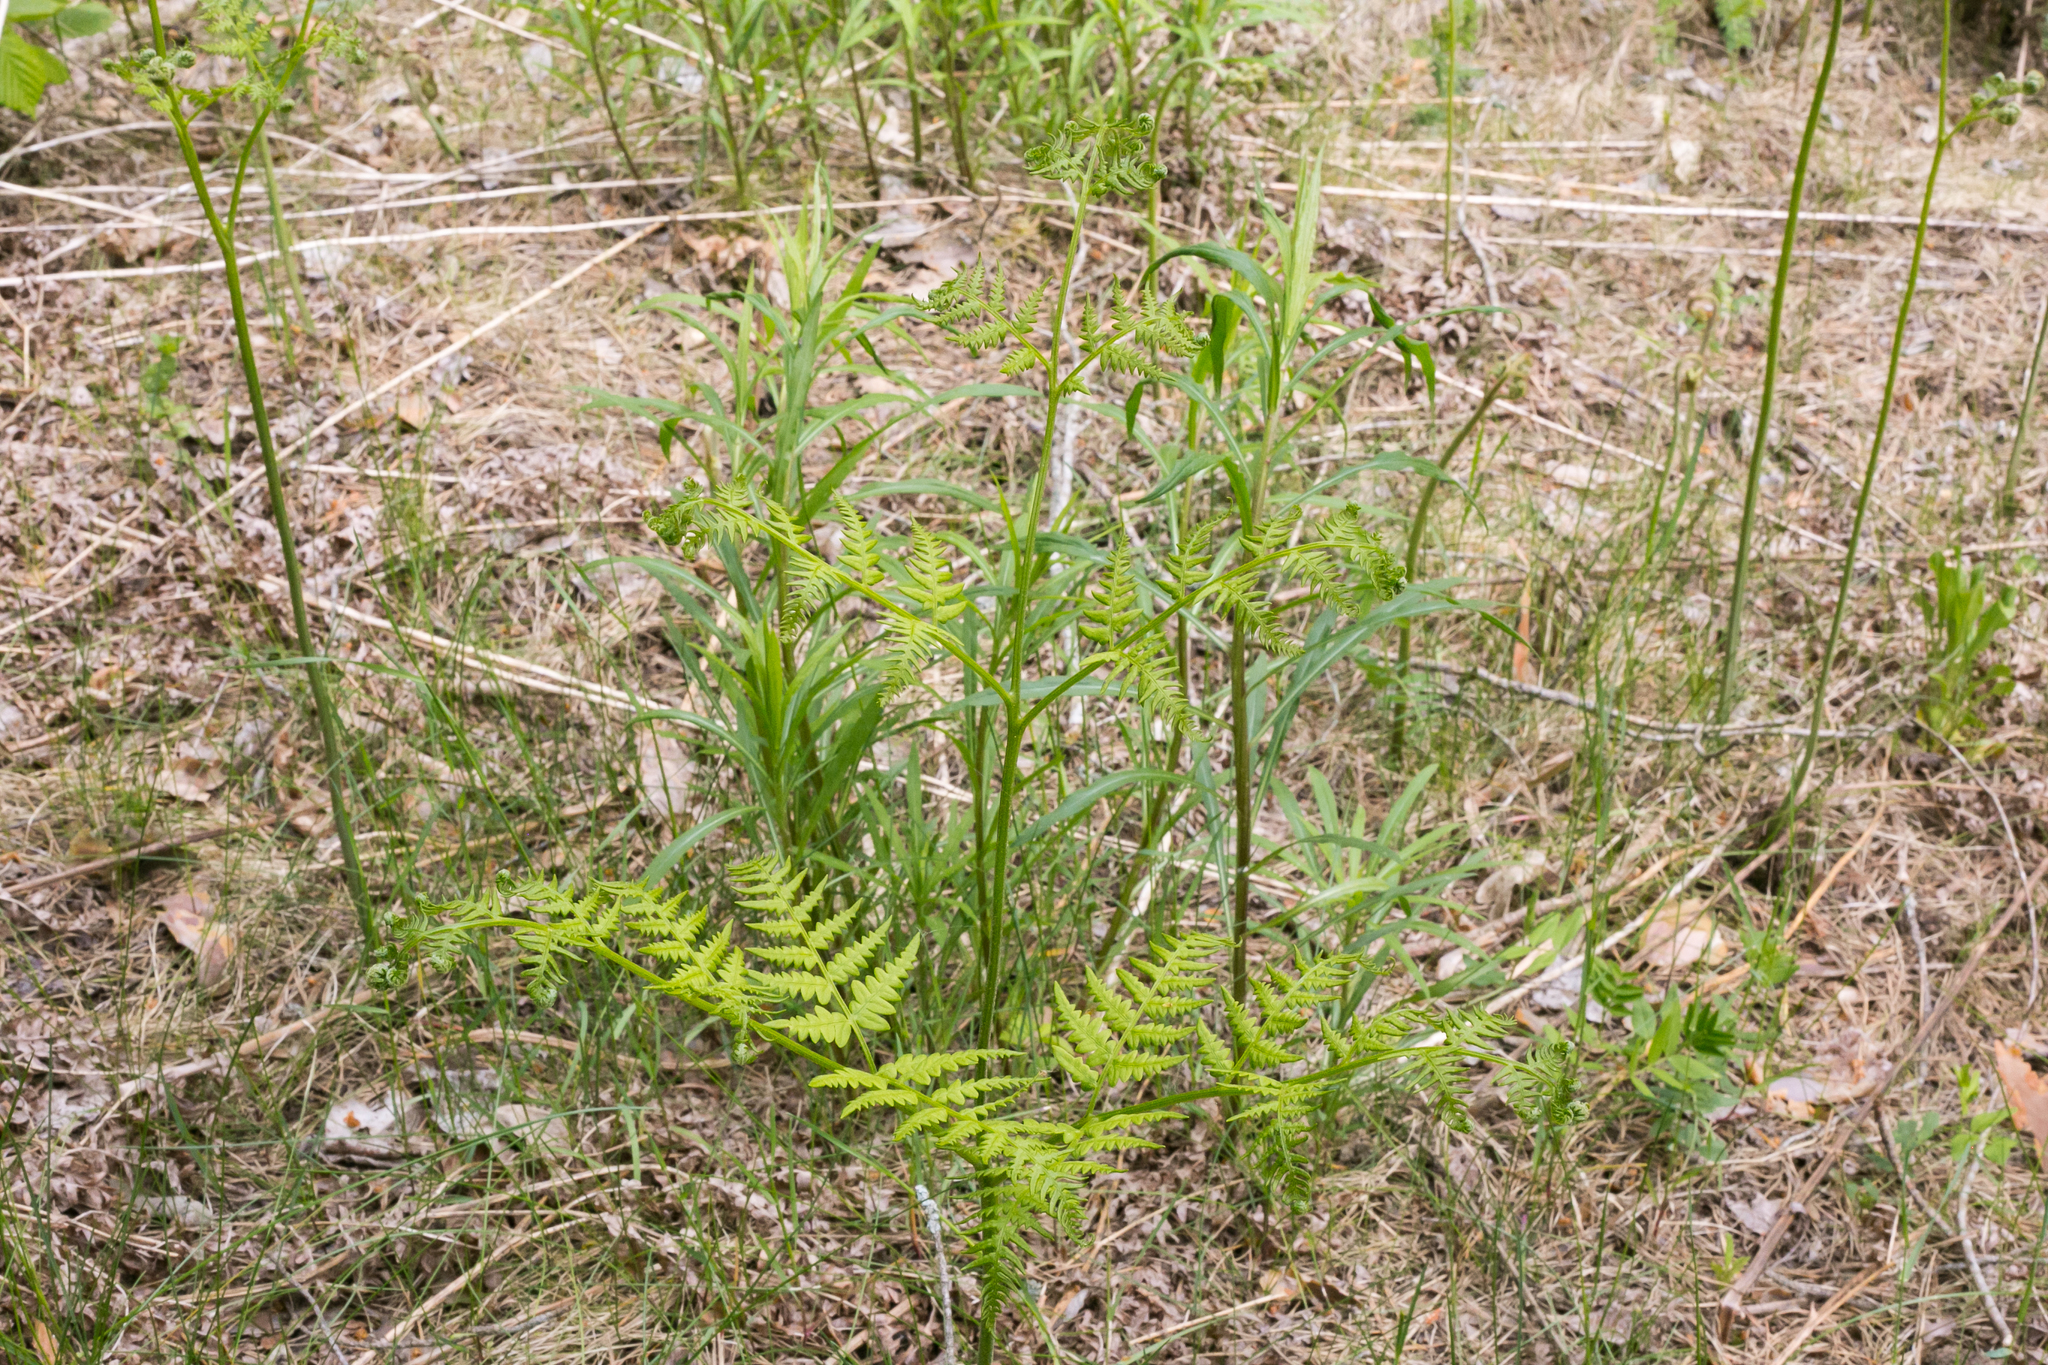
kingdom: Plantae
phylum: Tracheophyta
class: Polypodiopsida
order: Polypodiales
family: Dennstaedtiaceae
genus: Pteridium
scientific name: Pteridium aquilinum
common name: Bracken
